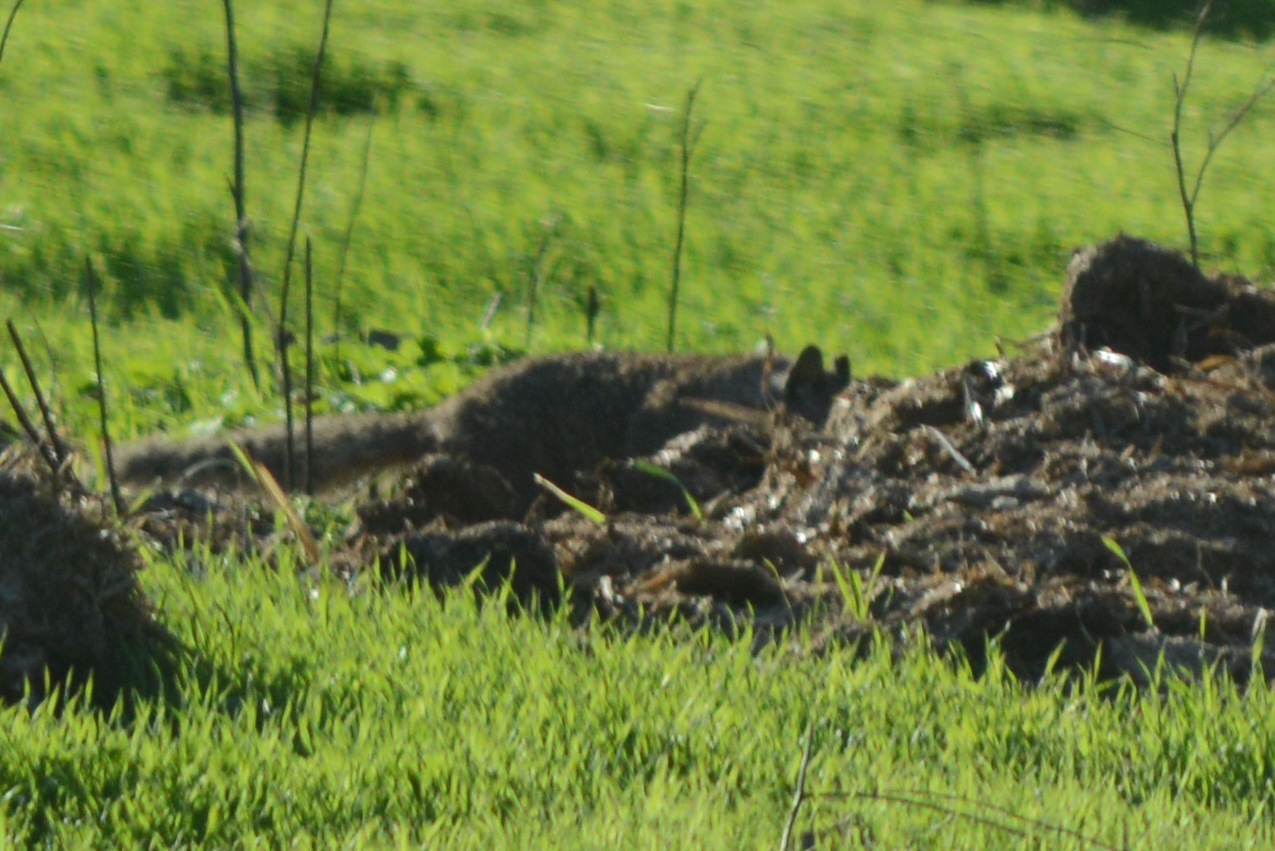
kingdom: Animalia
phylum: Chordata
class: Mammalia
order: Rodentia
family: Sciuridae
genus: Otospermophilus
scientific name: Otospermophilus beecheyi
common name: California ground squirrel
